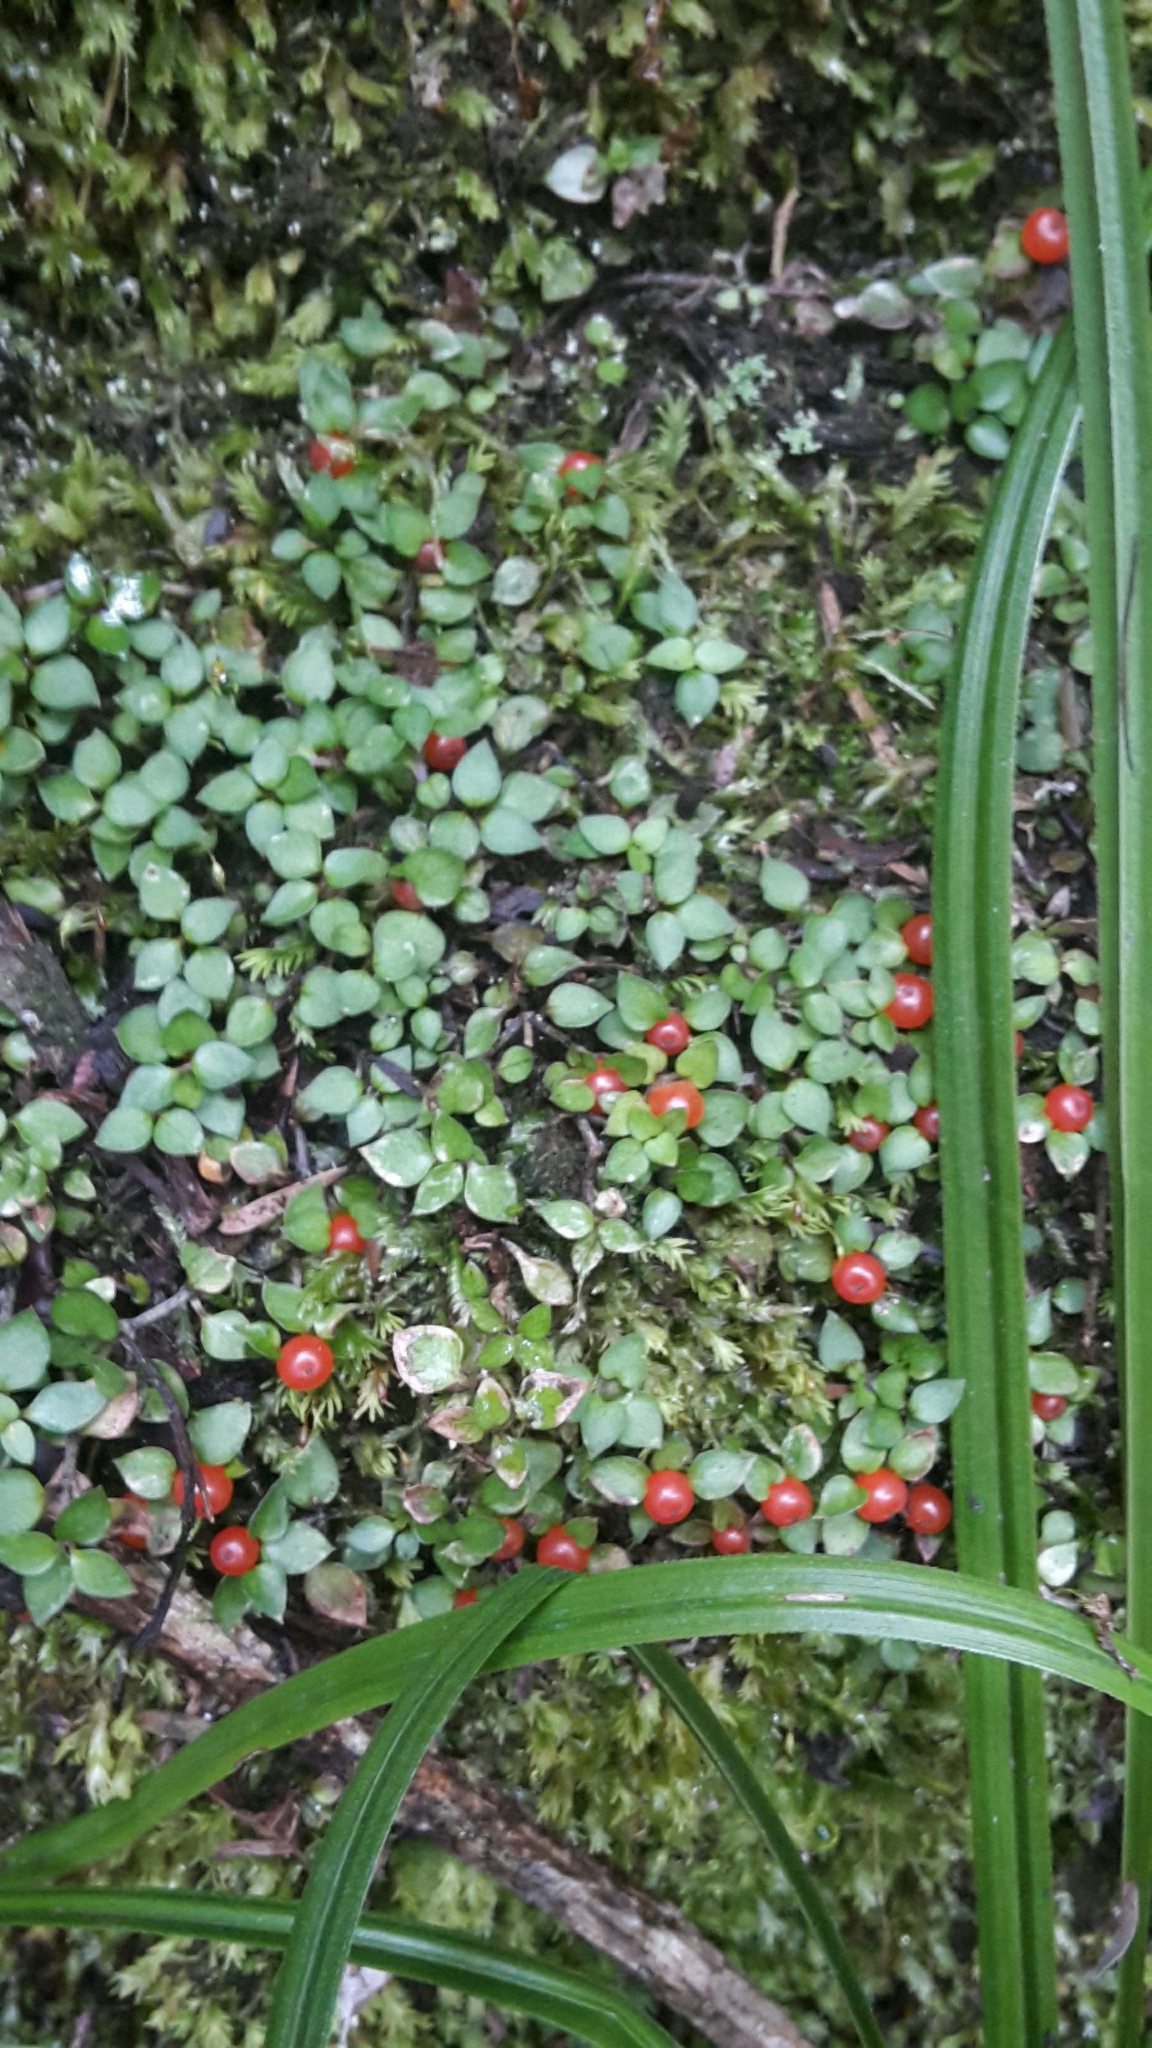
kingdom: Plantae
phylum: Tracheophyta
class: Magnoliopsida
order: Gentianales
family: Rubiaceae
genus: Nertera
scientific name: Nertera granadensis
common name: Beadplant
